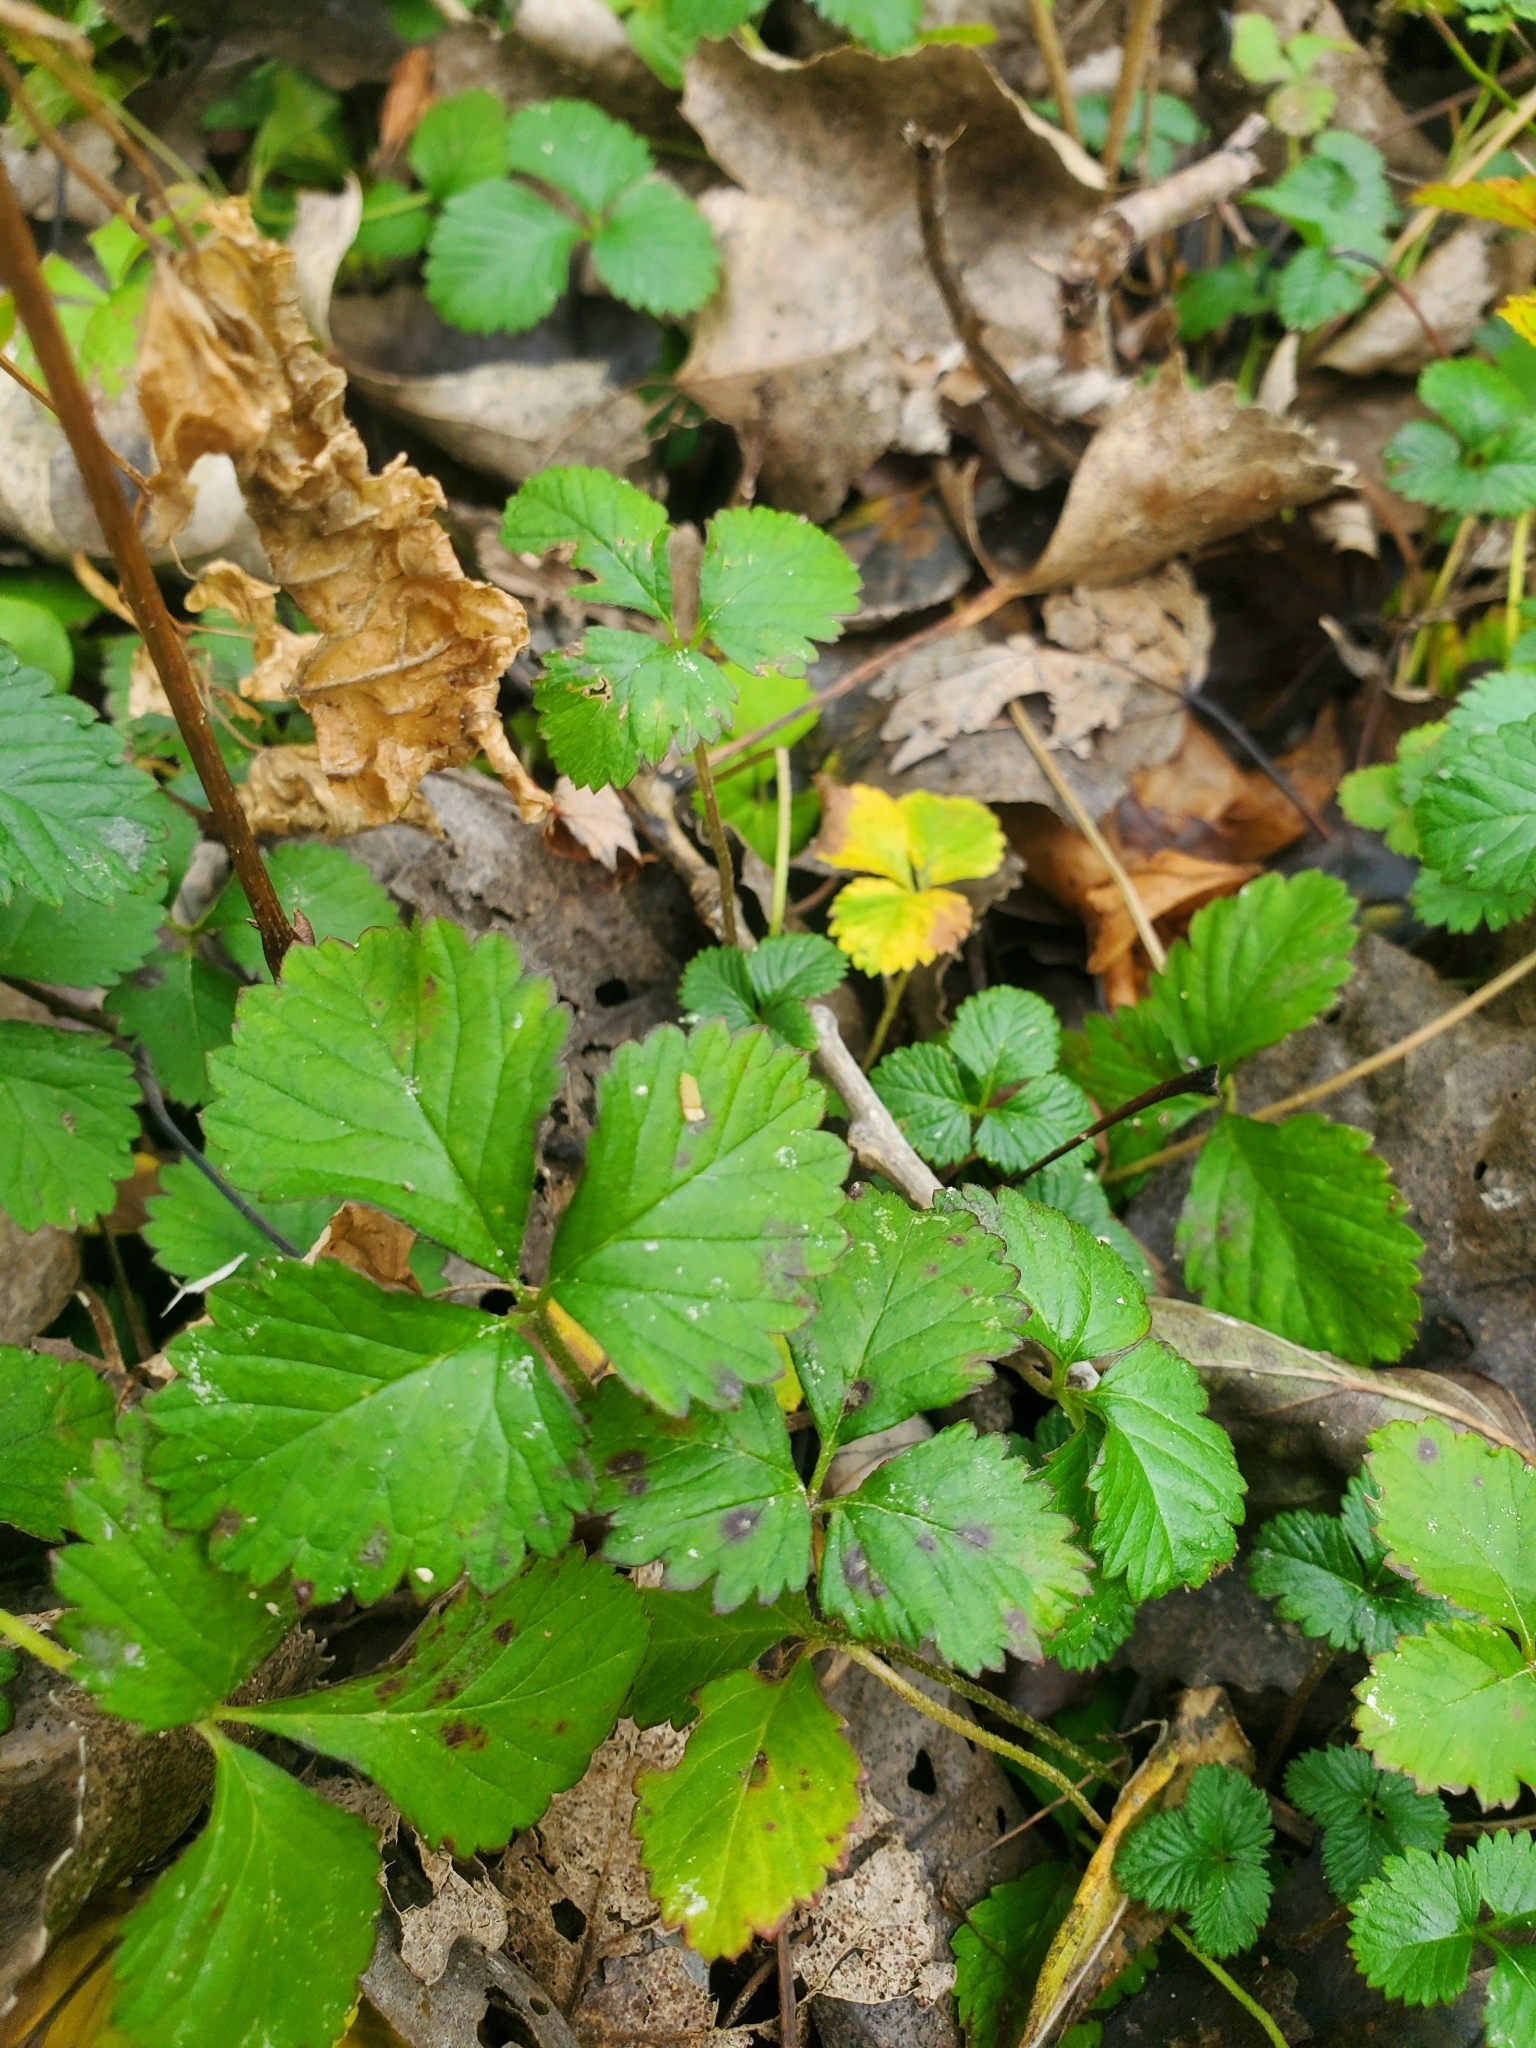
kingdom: Plantae
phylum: Tracheophyta
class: Magnoliopsida
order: Rosales
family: Rosaceae
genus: Potentilla
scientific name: Potentilla indica
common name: Yellow-flowered strawberry
